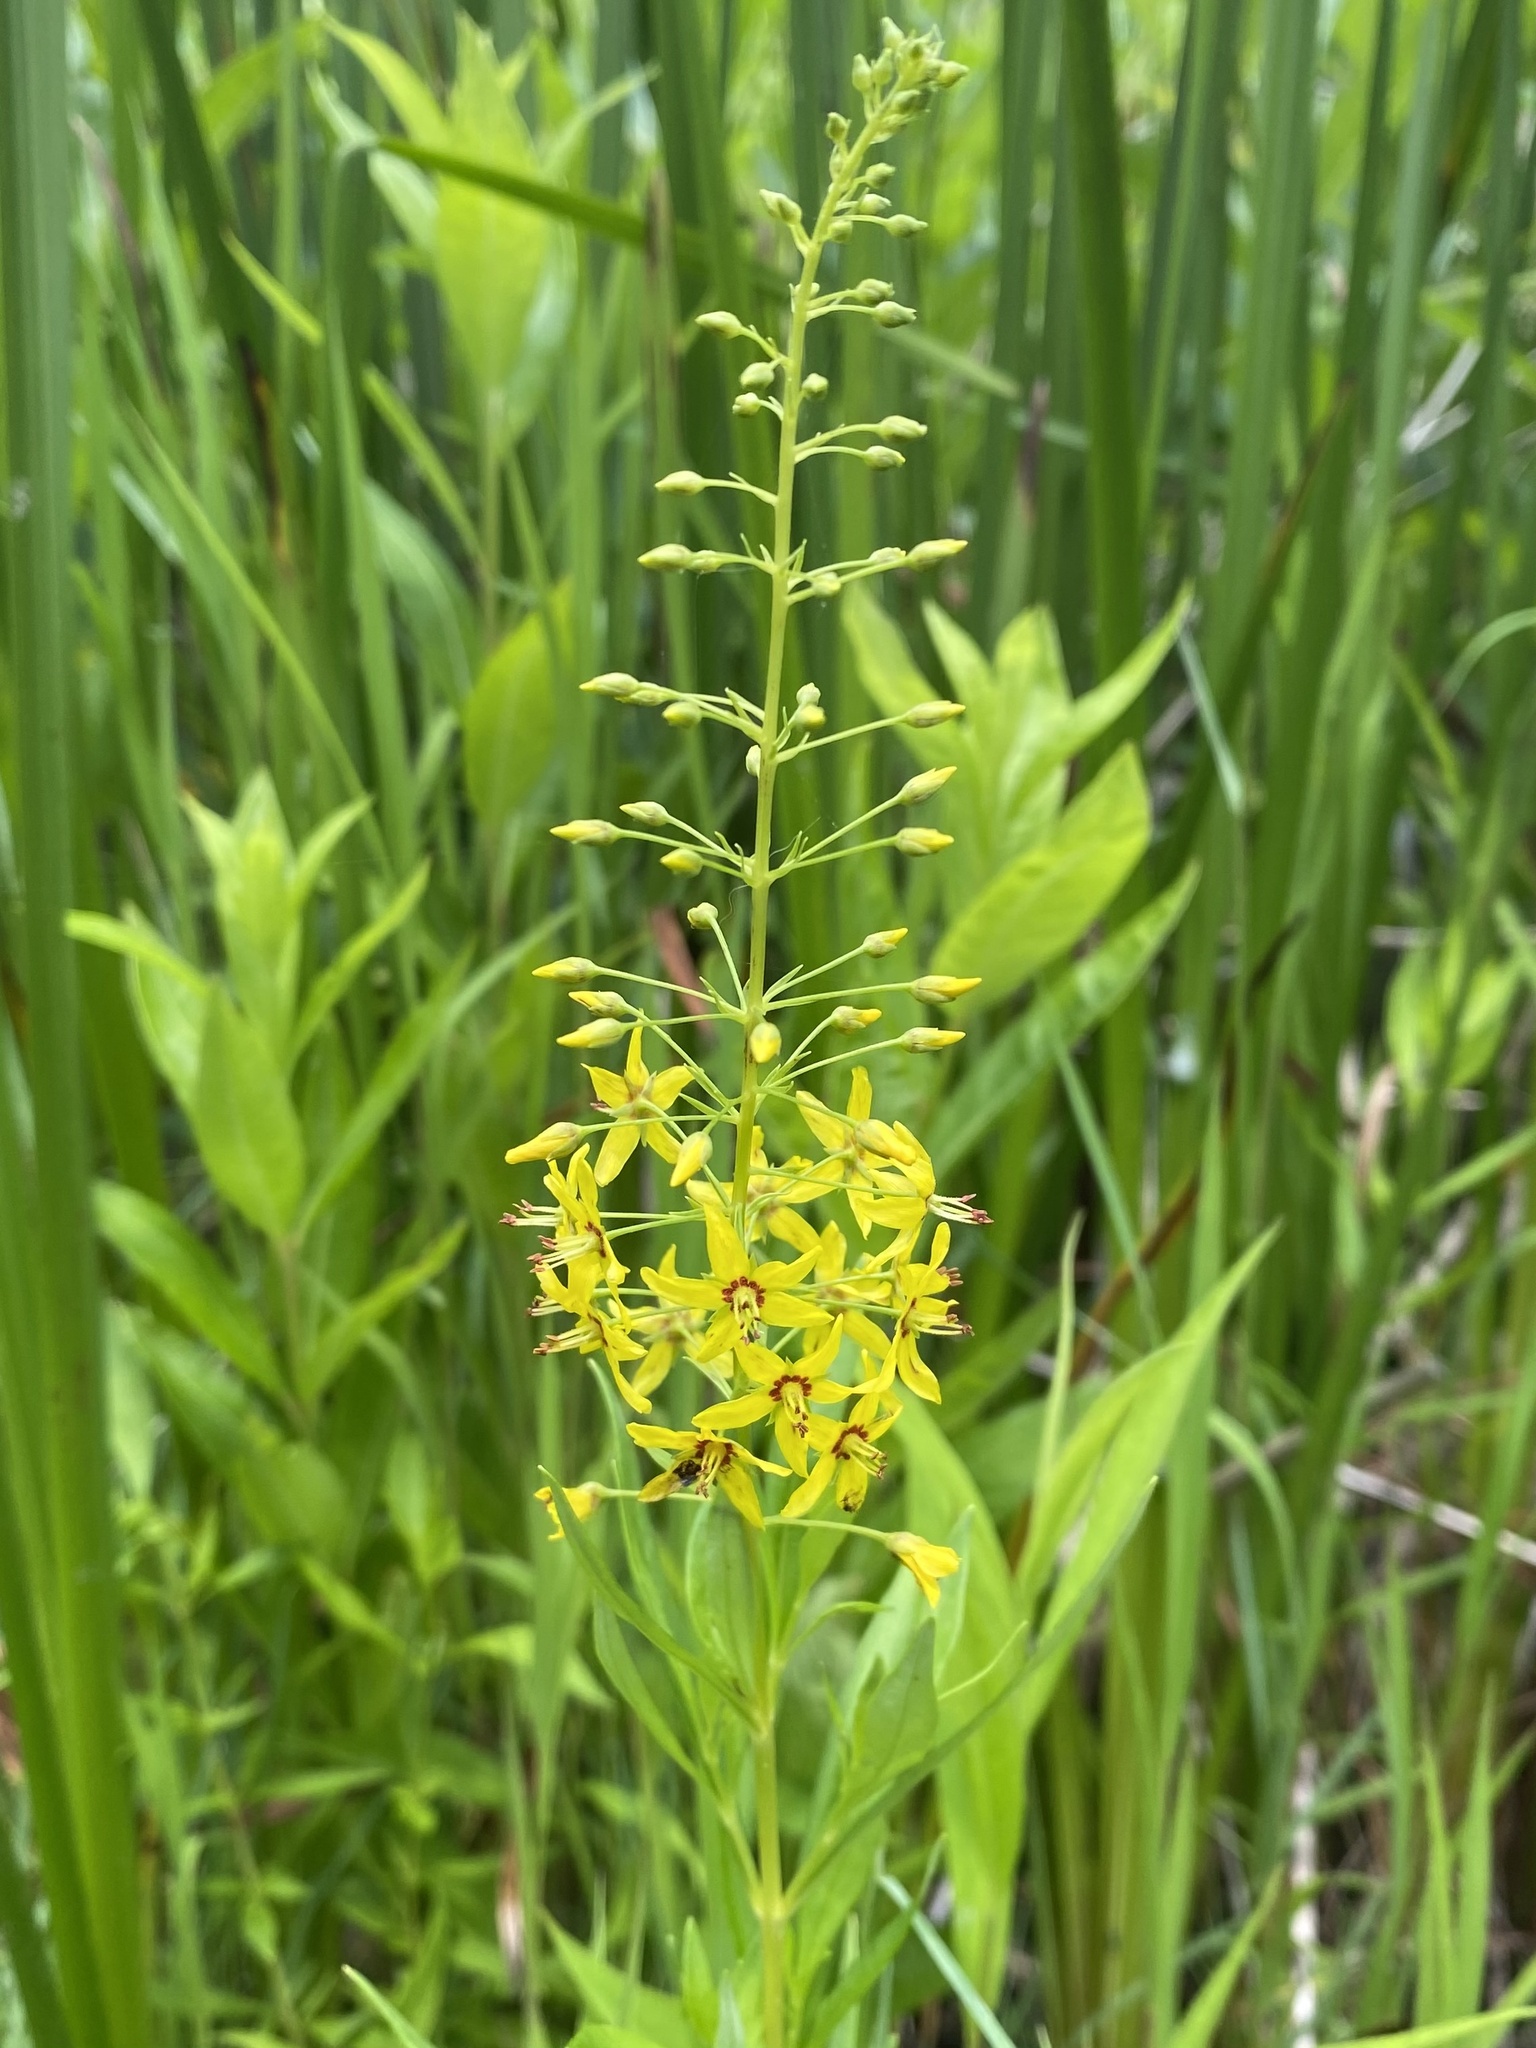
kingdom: Plantae
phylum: Tracheophyta
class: Magnoliopsida
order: Ericales
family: Primulaceae
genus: Lysimachia
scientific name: Lysimachia terrestris
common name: Lake loosestrife
